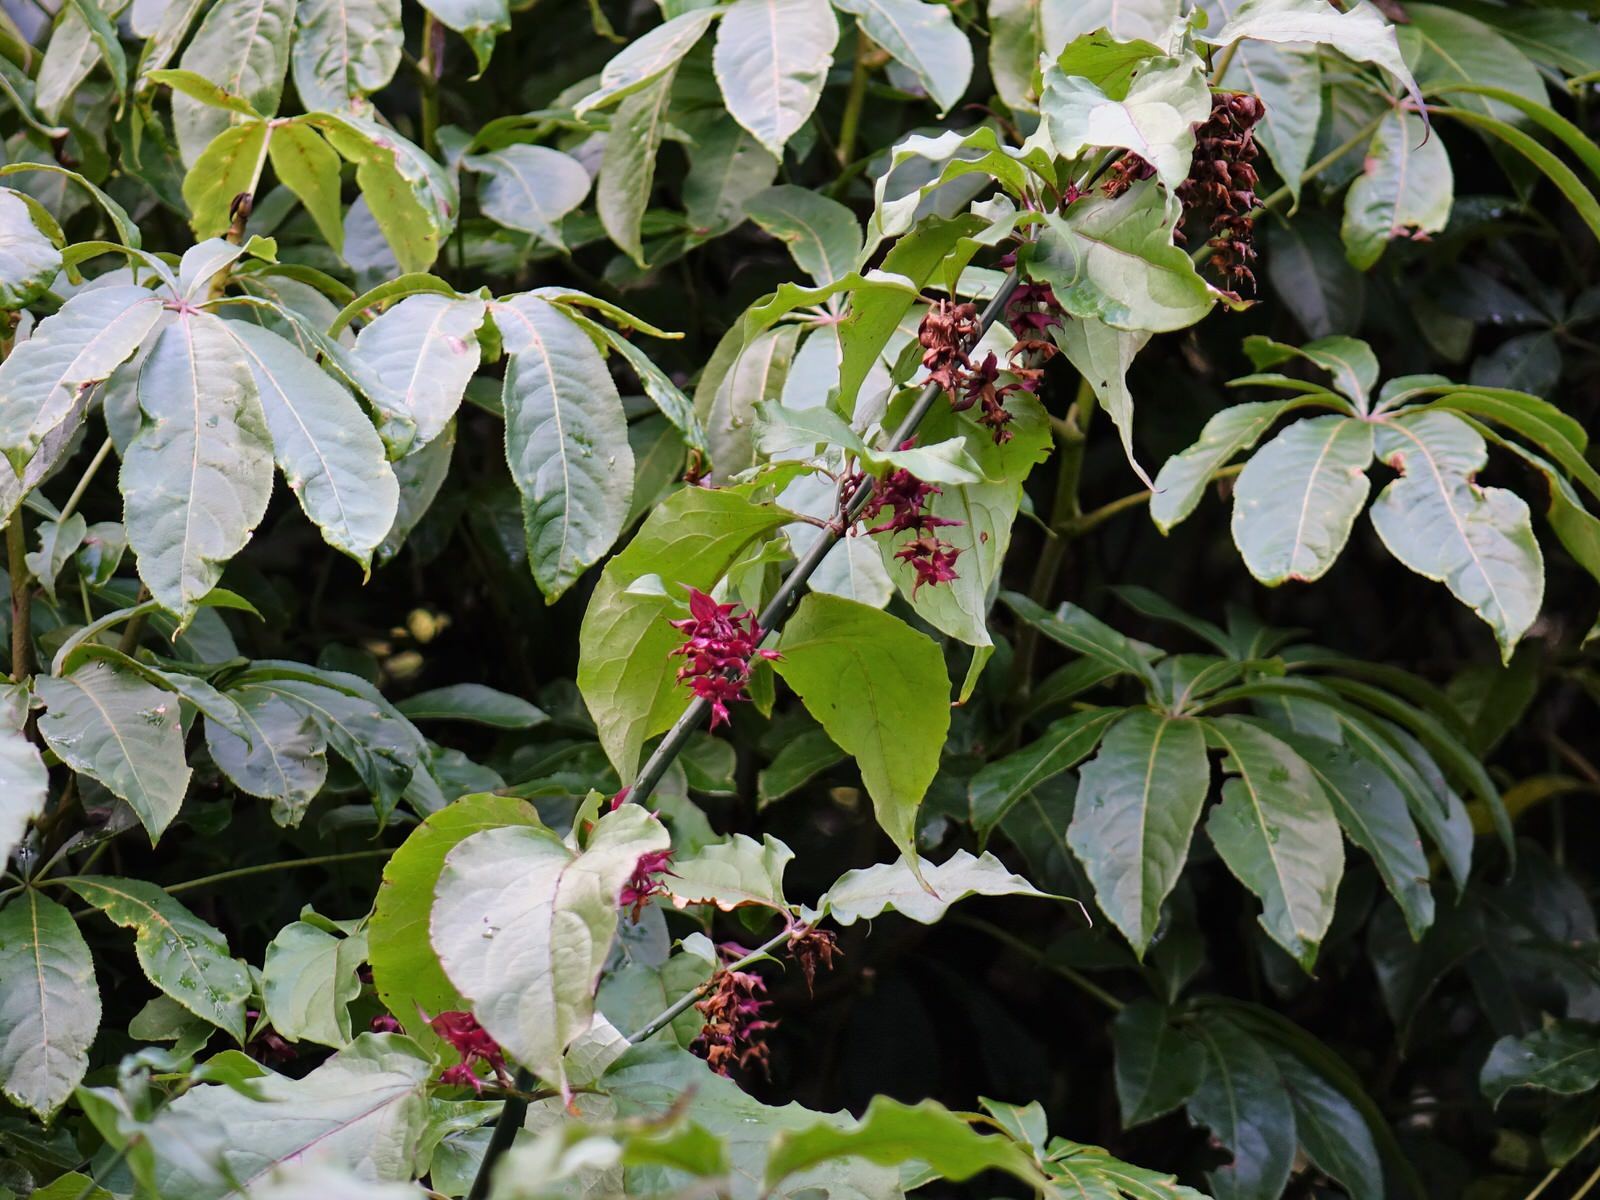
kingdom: Plantae
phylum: Tracheophyta
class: Magnoliopsida
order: Dipsacales
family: Caprifoliaceae
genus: Leycesteria
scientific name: Leycesteria formosa
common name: Himalayan honeysuckle
